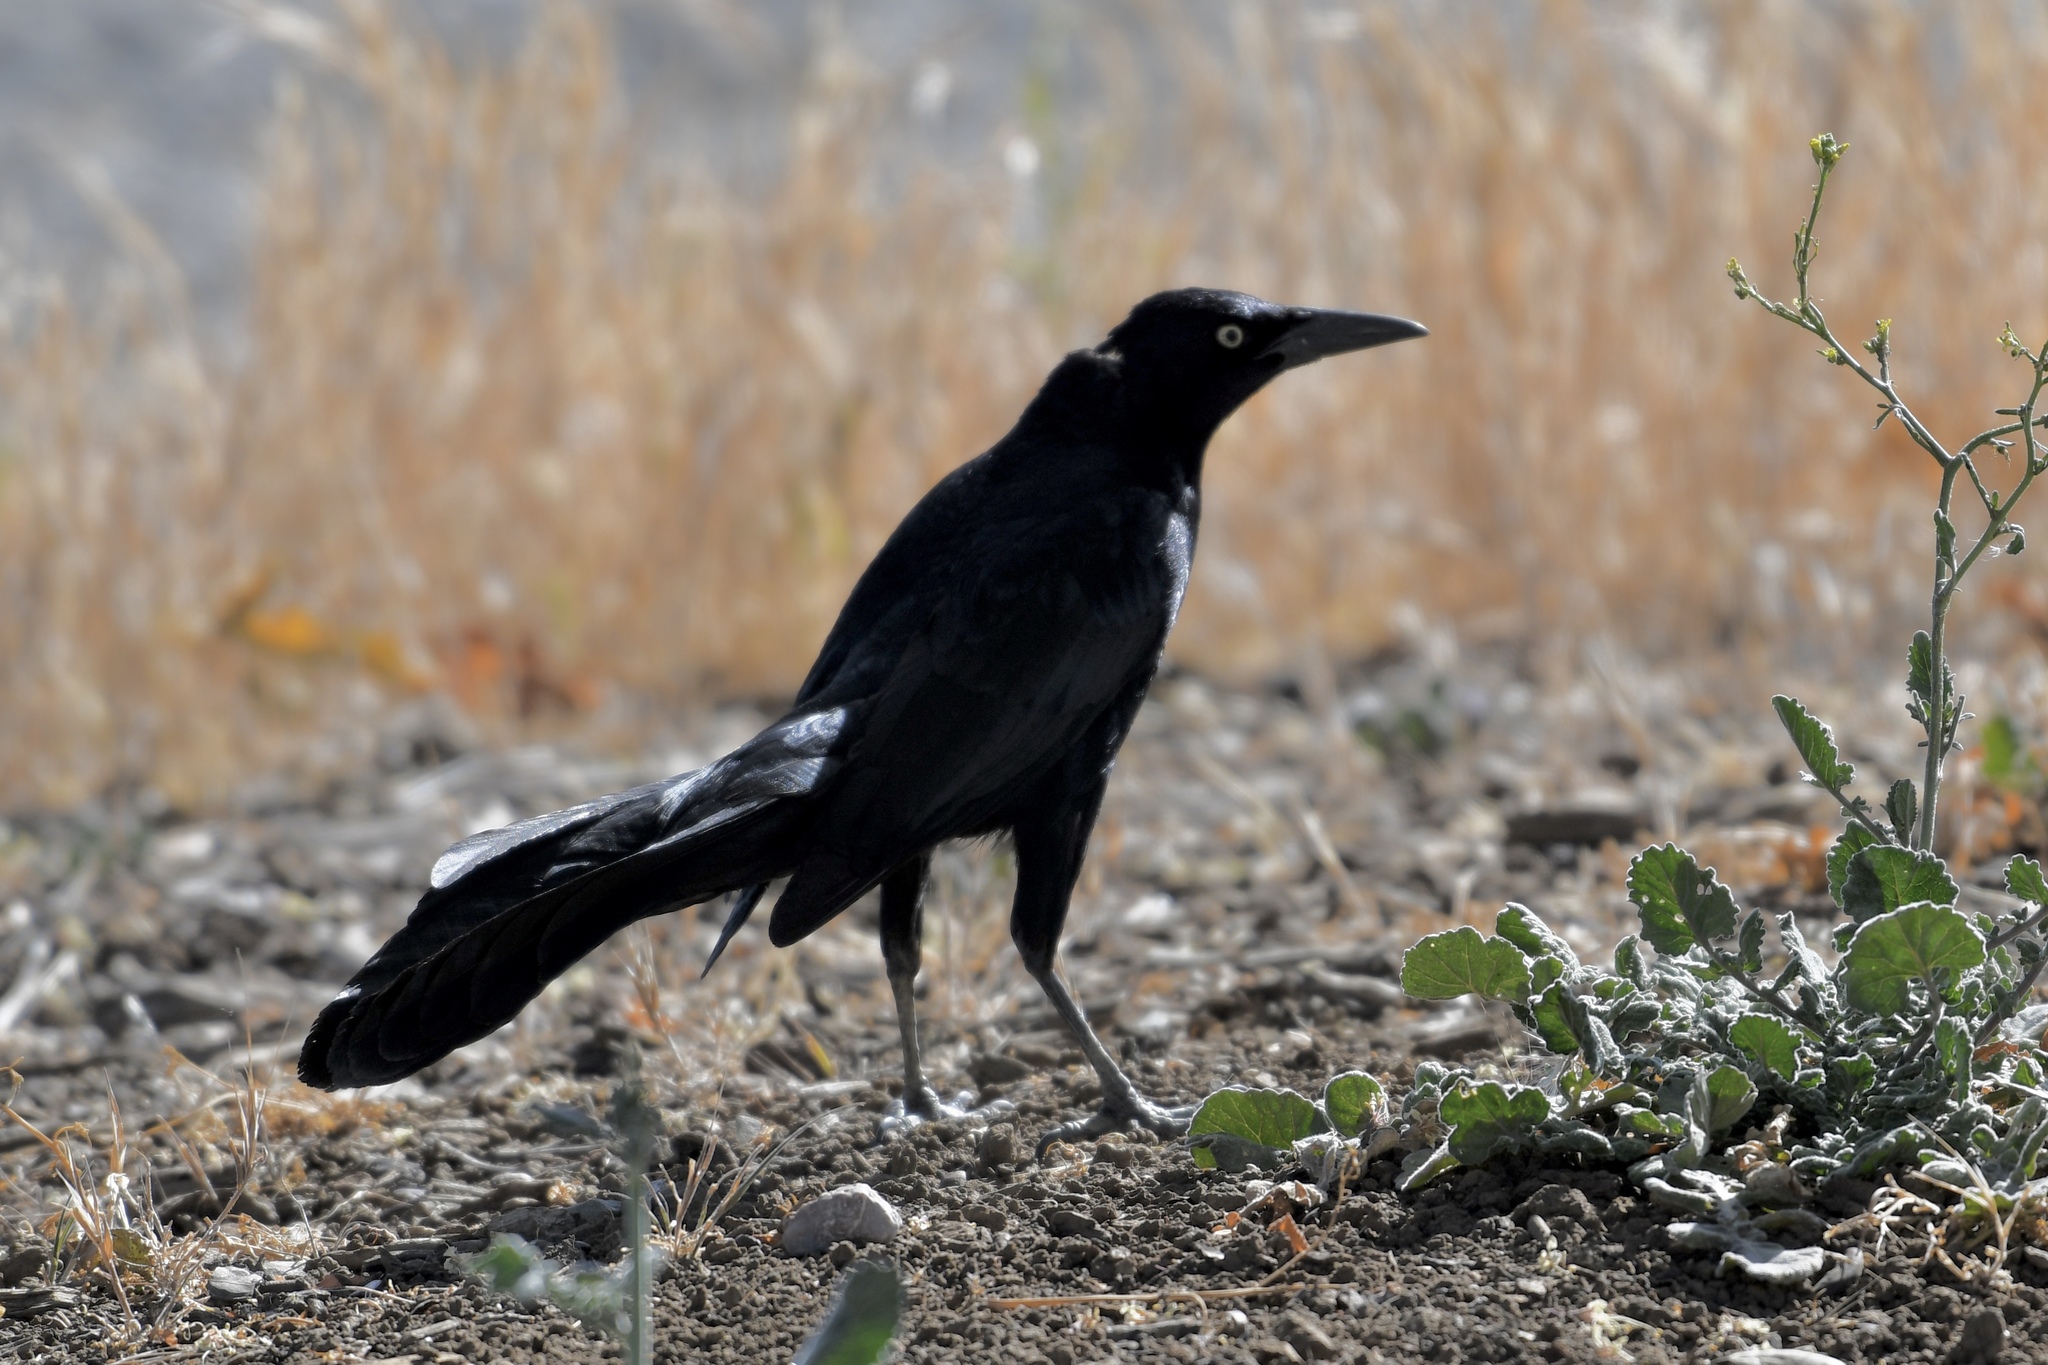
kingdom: Animalia
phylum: Chordata
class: Aves
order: Passeriformes
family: Icteridae
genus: Quiscalus
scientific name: Quiscalus mexicanus
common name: Great-tailed grackle
